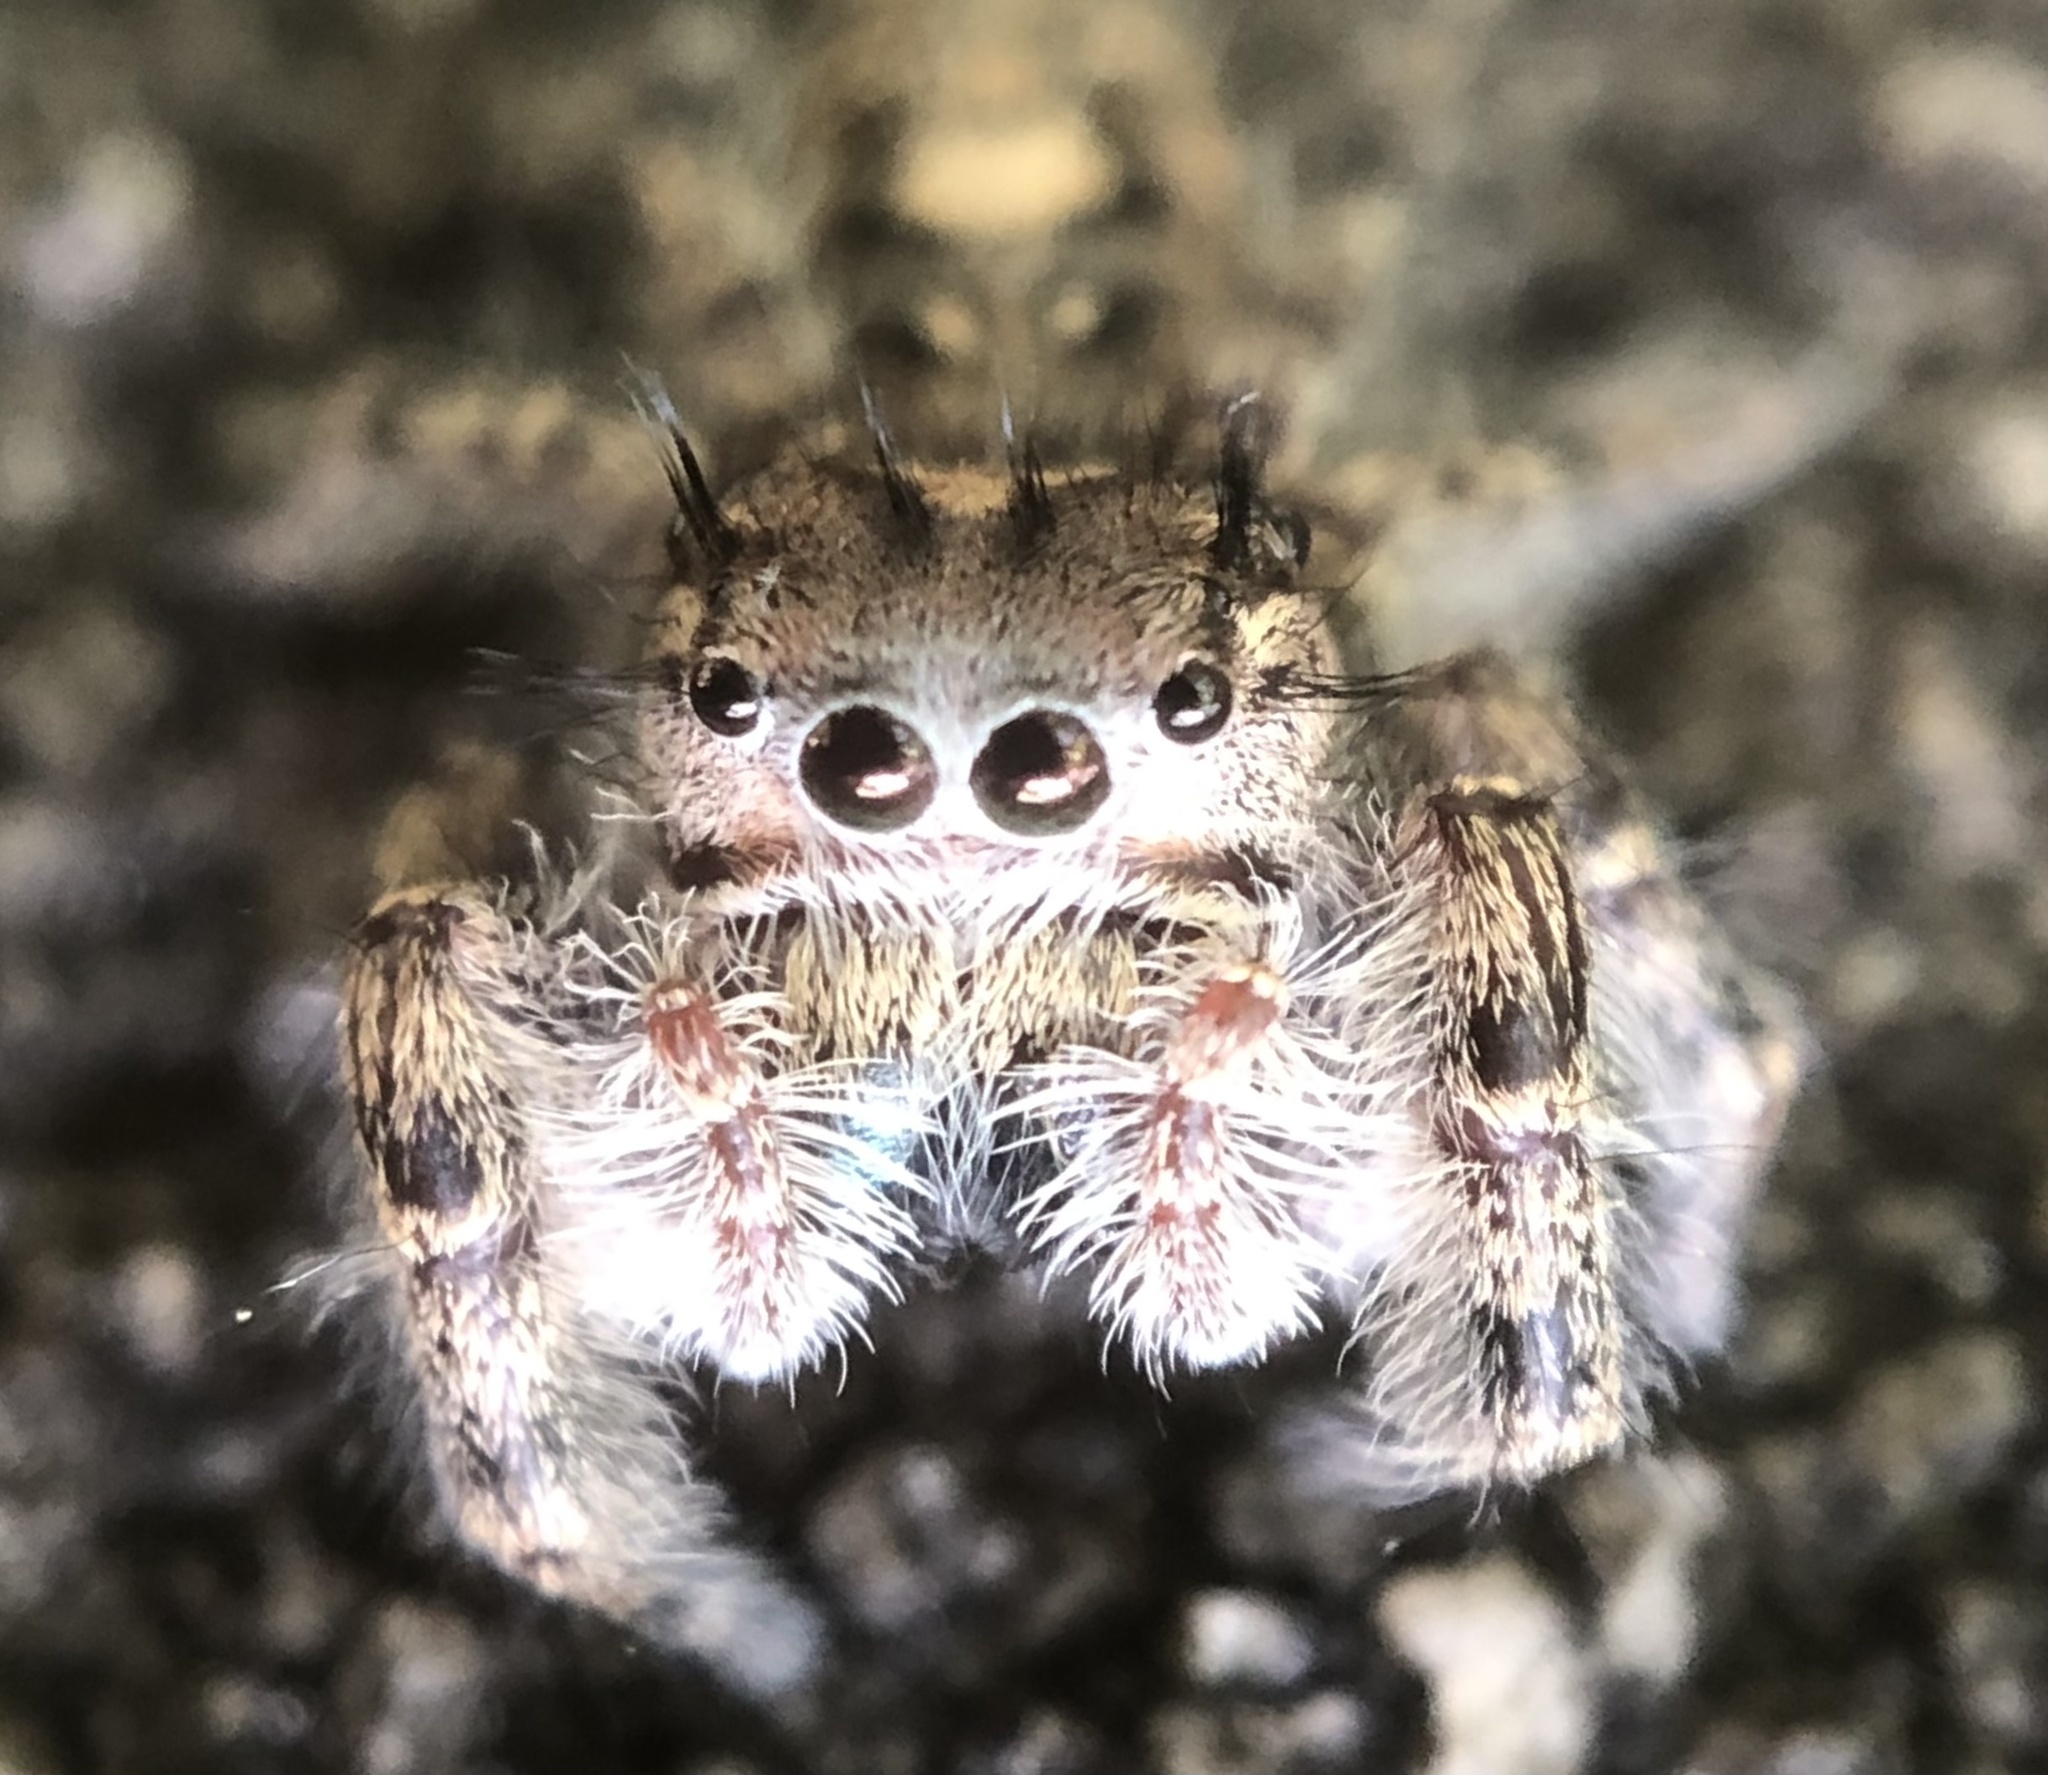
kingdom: Animalia
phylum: Arthropoda
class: Arachnida
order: Araneae
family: Salticidae
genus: Phidippus
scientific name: Phidippus putnami
